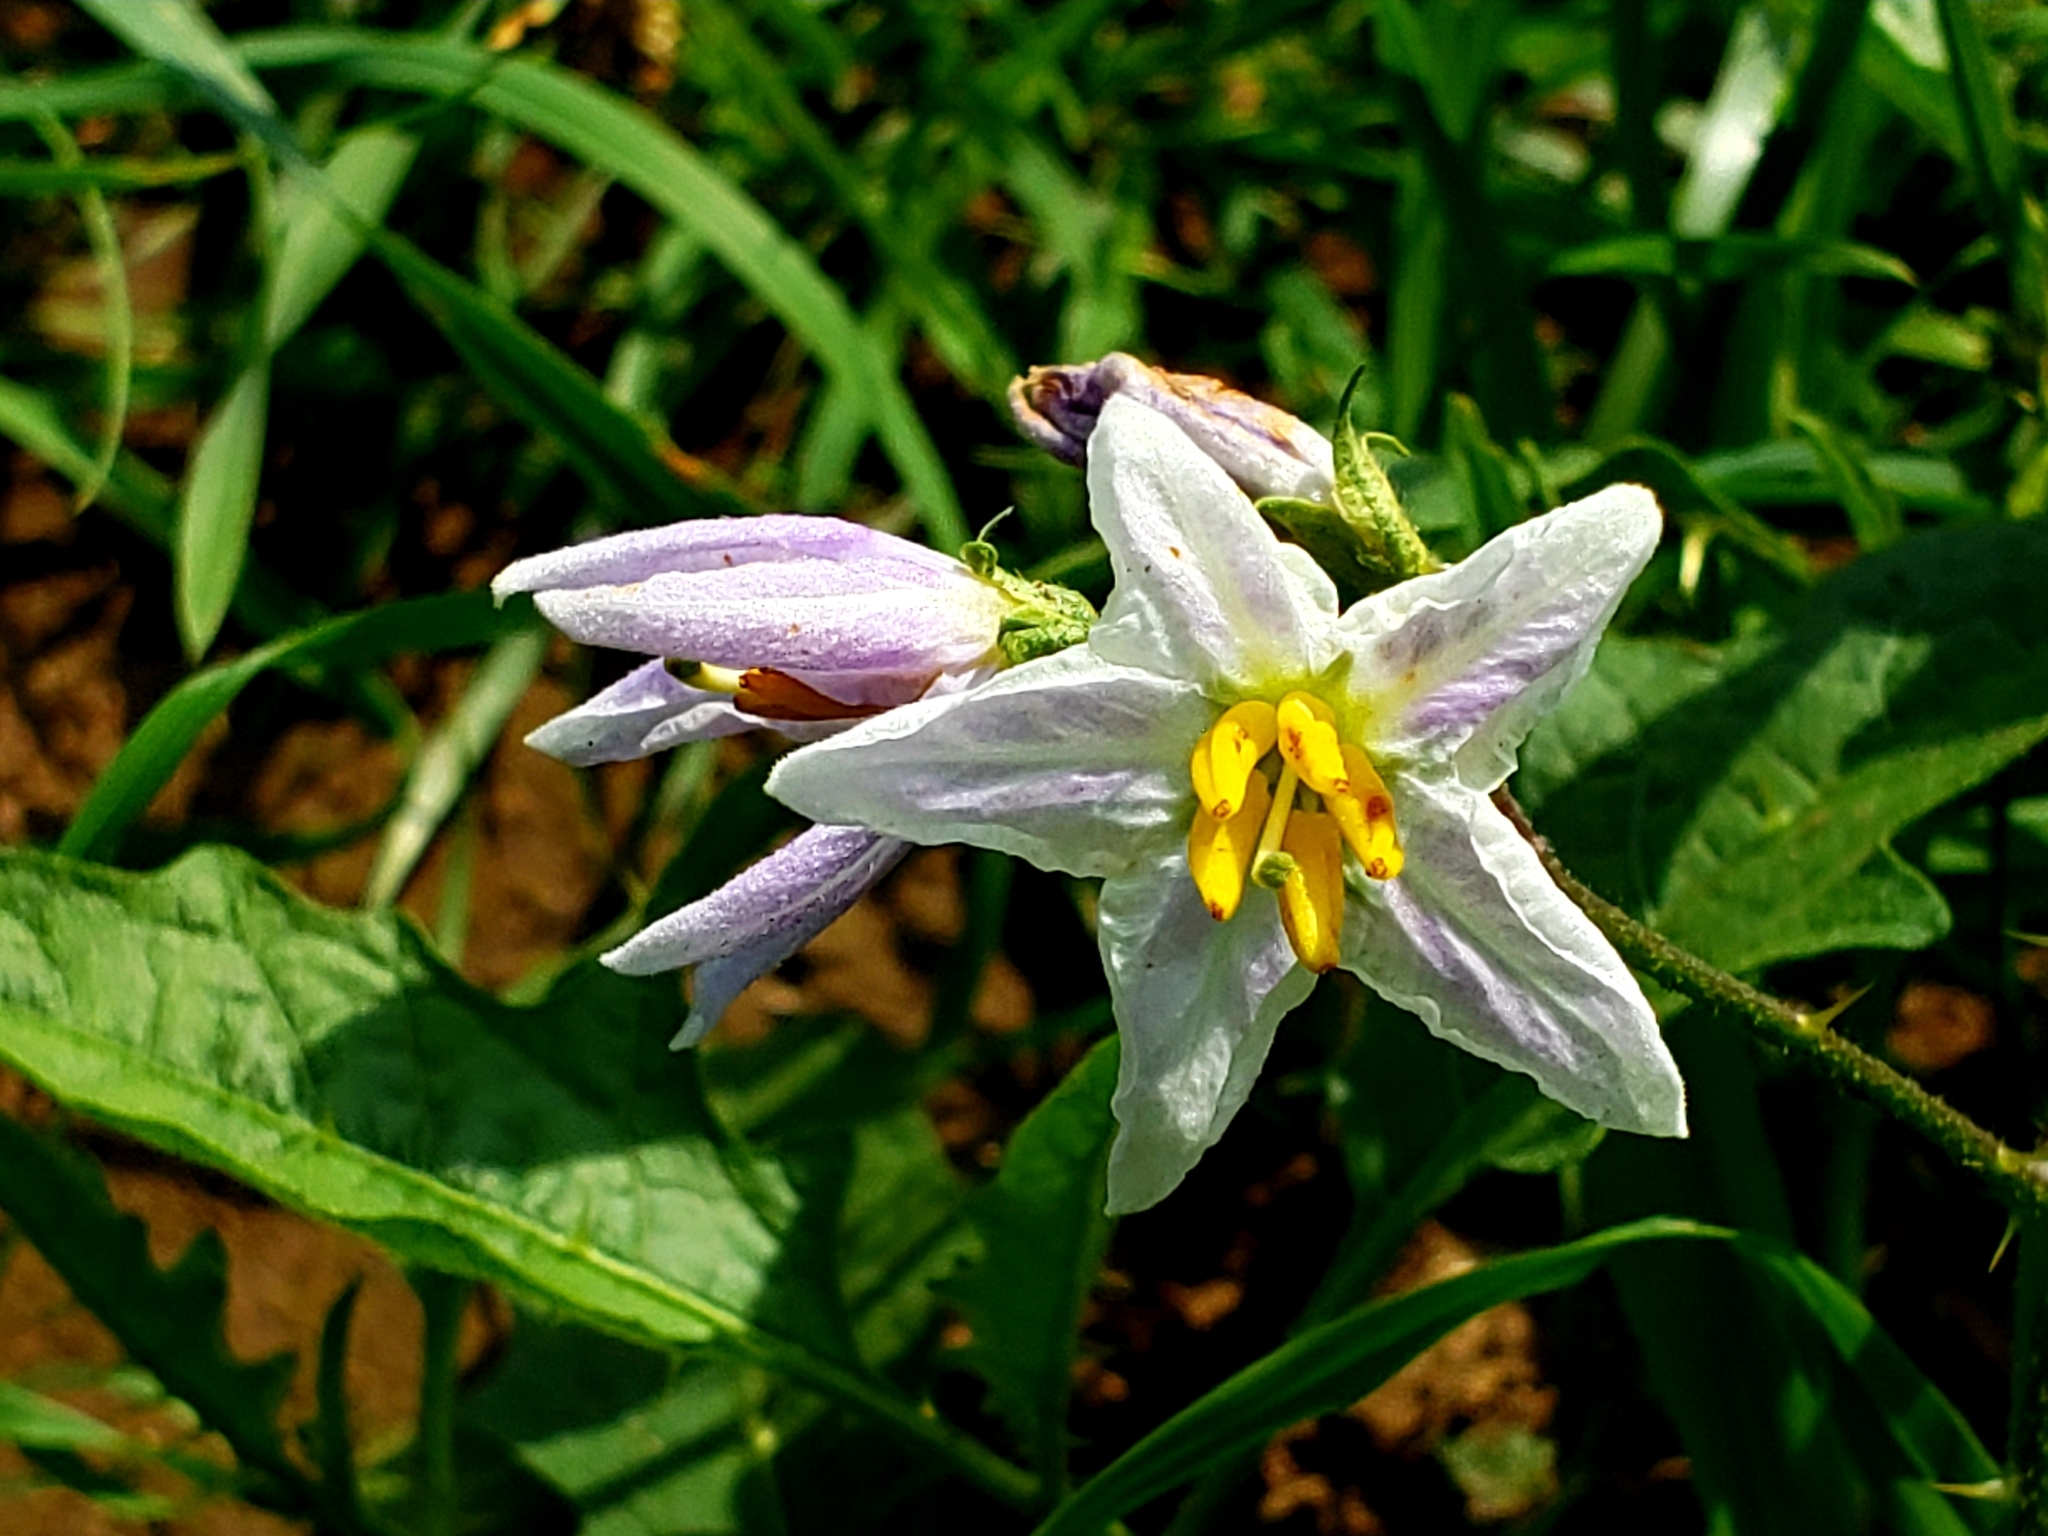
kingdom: Plantae
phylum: Tracheophyta
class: Magnoliopsida
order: Solanales
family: Solanaceae
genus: Solanum
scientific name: Solanum carolinense
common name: Horse-nettle
